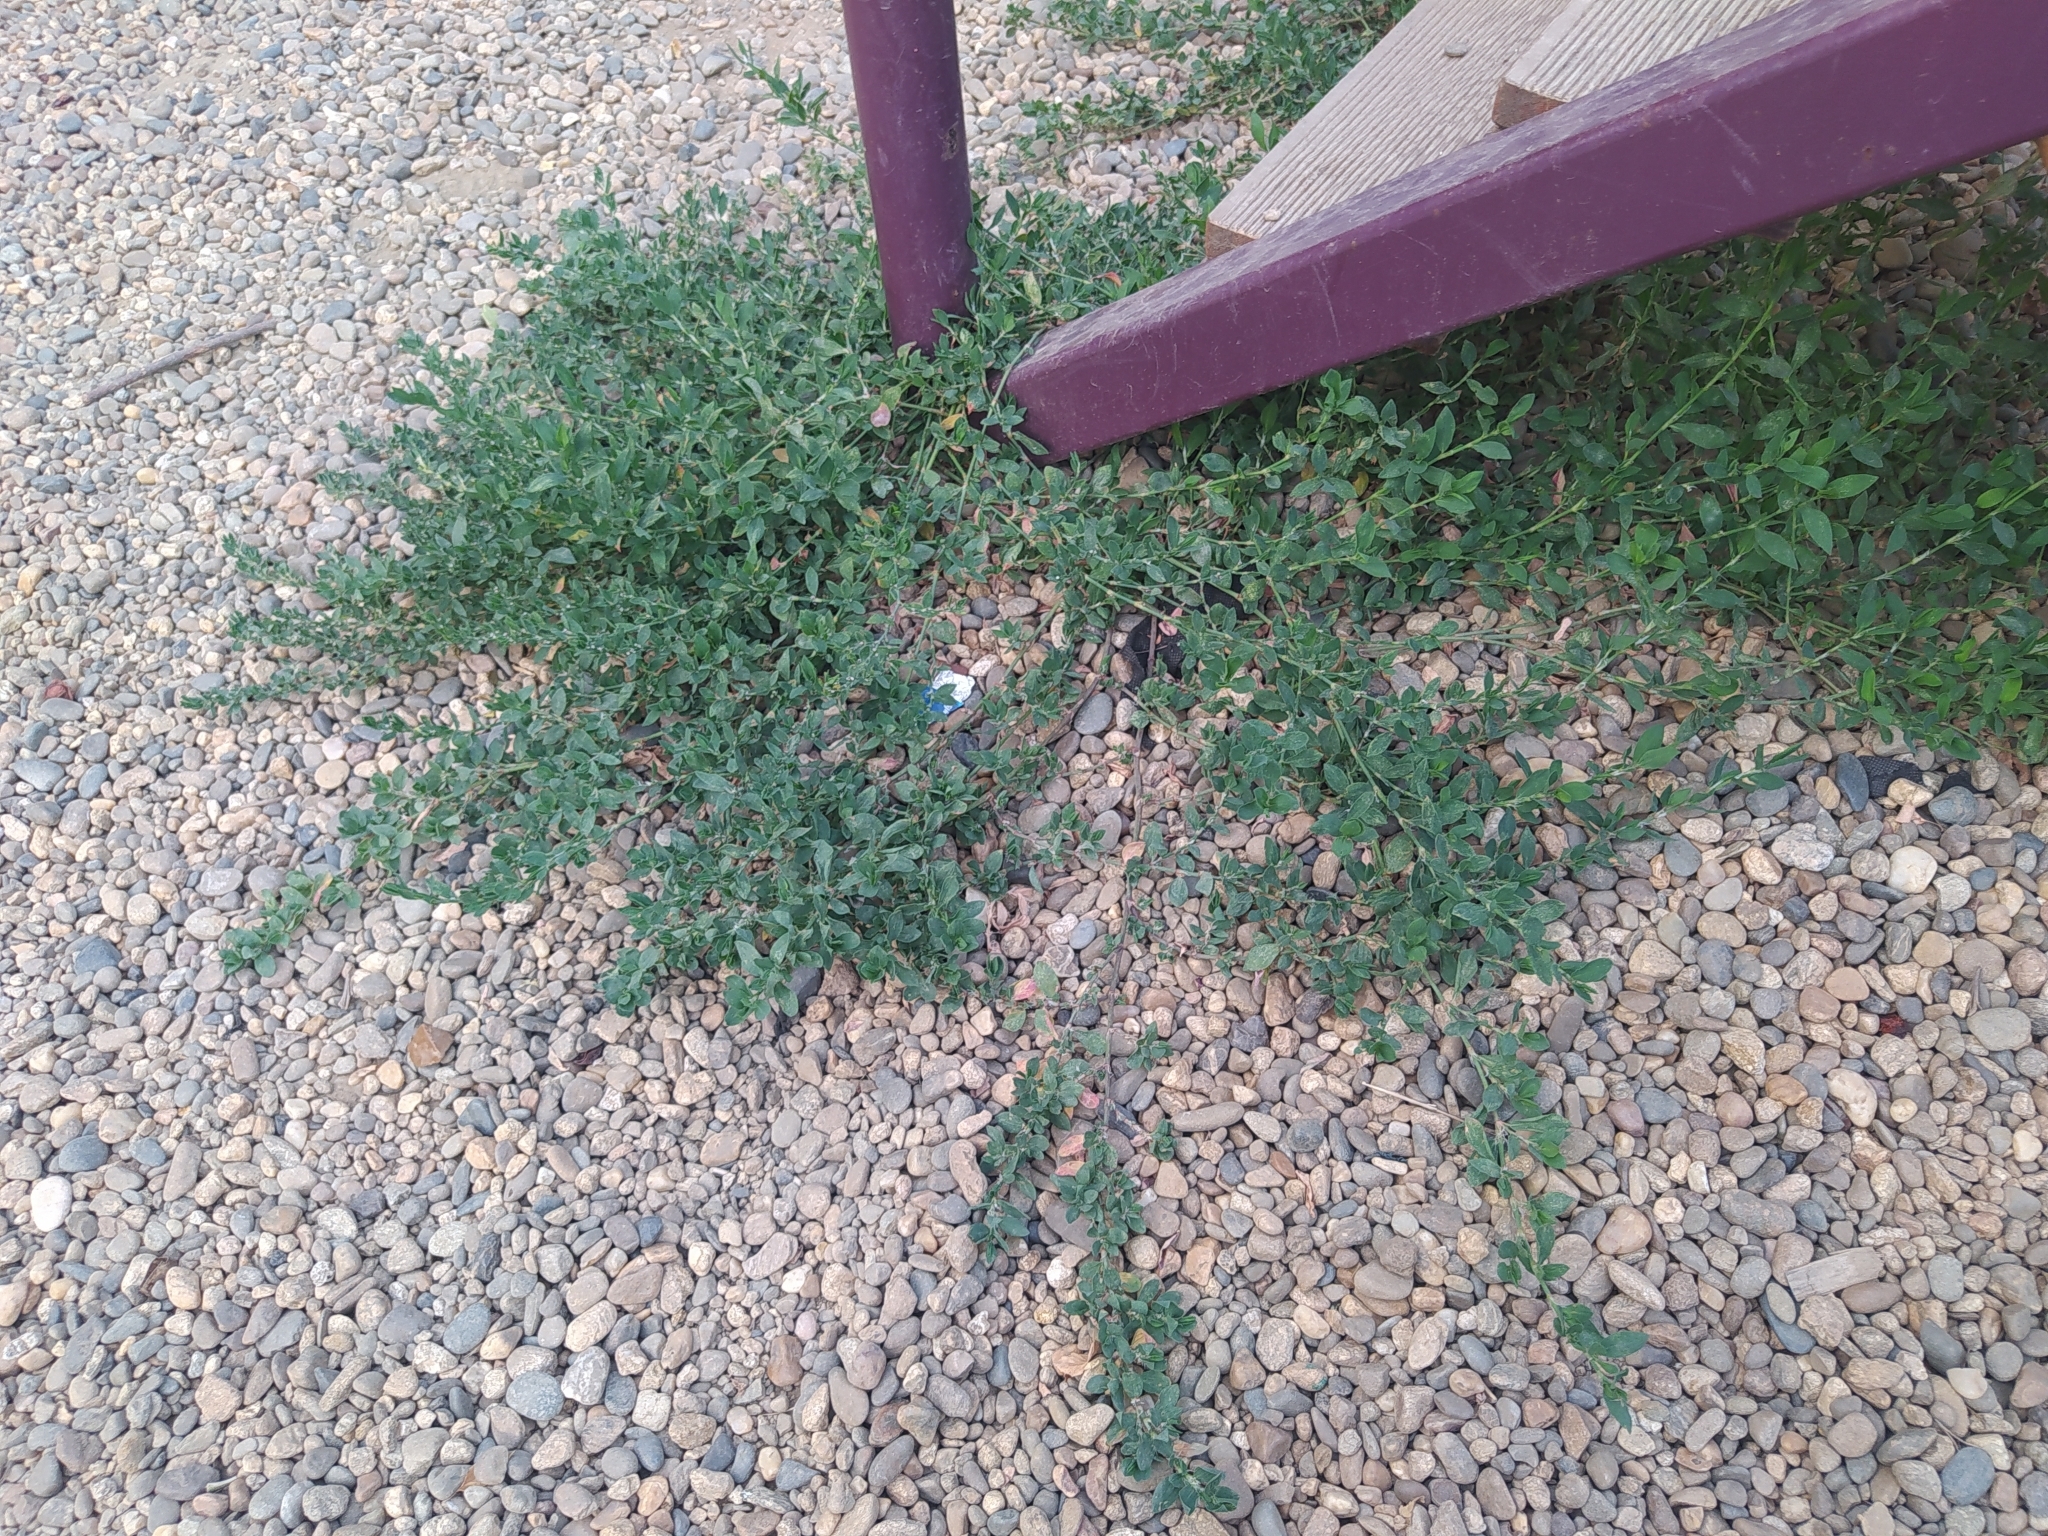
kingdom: Plantae
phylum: Tracheophyta
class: Magnoliopsida
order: Caryophyllales
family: Polygonaceae
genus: Polygonum
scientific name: Polygonum
